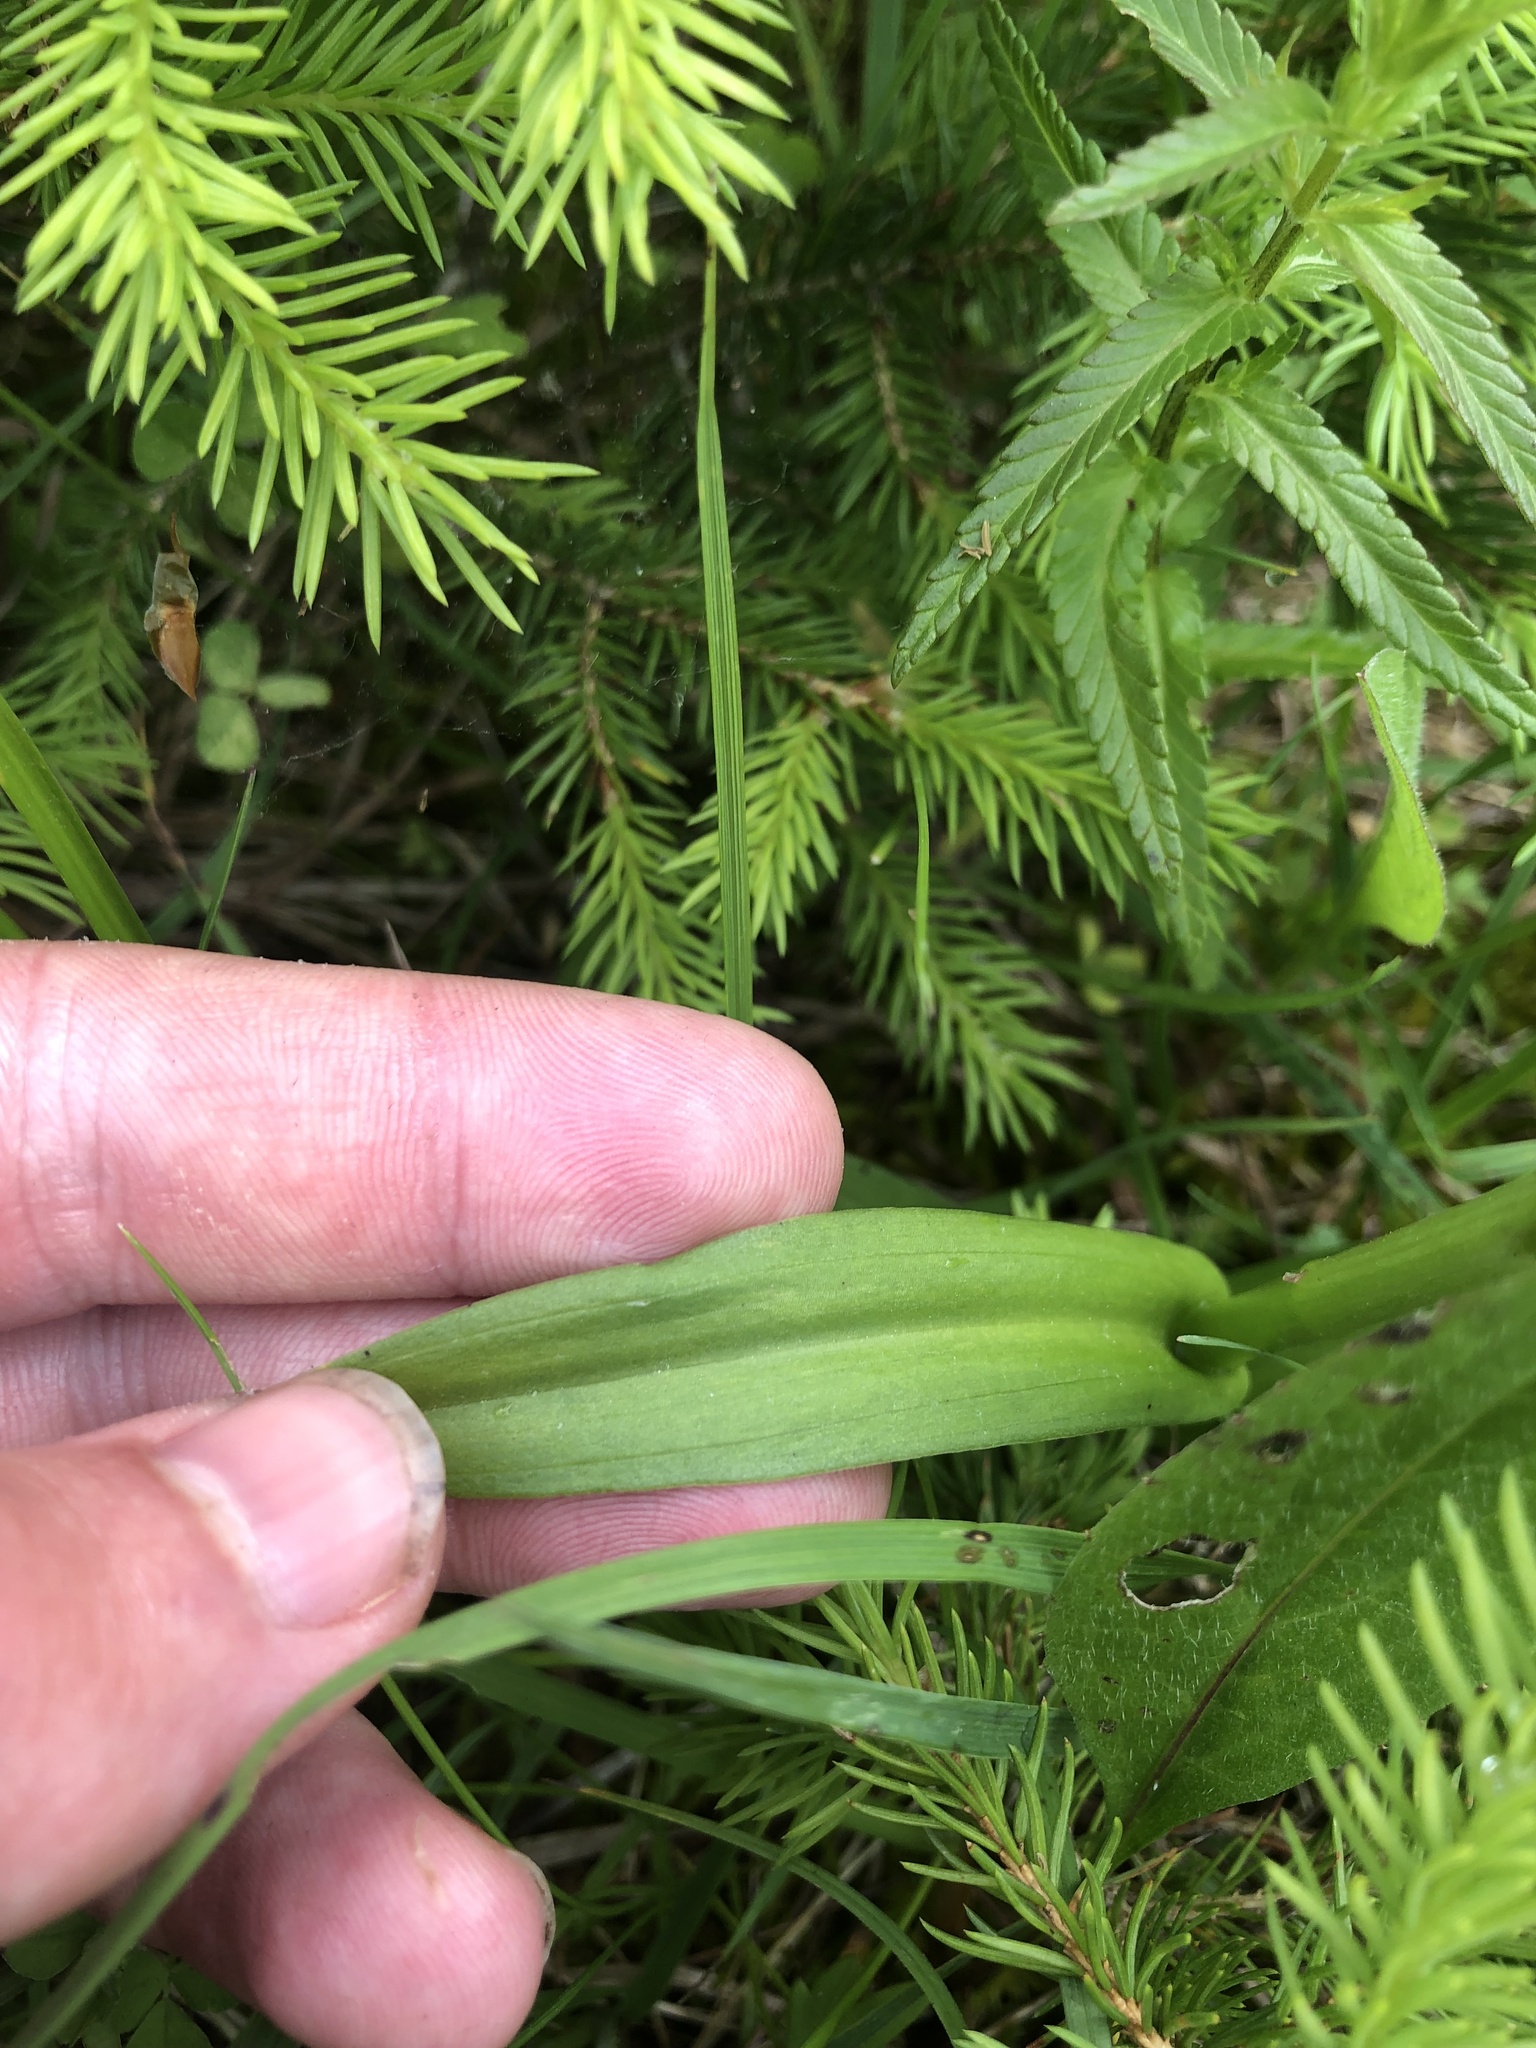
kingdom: Plantae
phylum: Tracheophyta
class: Liliopsida
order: Asparagales
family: Orchidaceae
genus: Gymnadenia
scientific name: Gymnadenia conopsea
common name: Fragrant orchid
